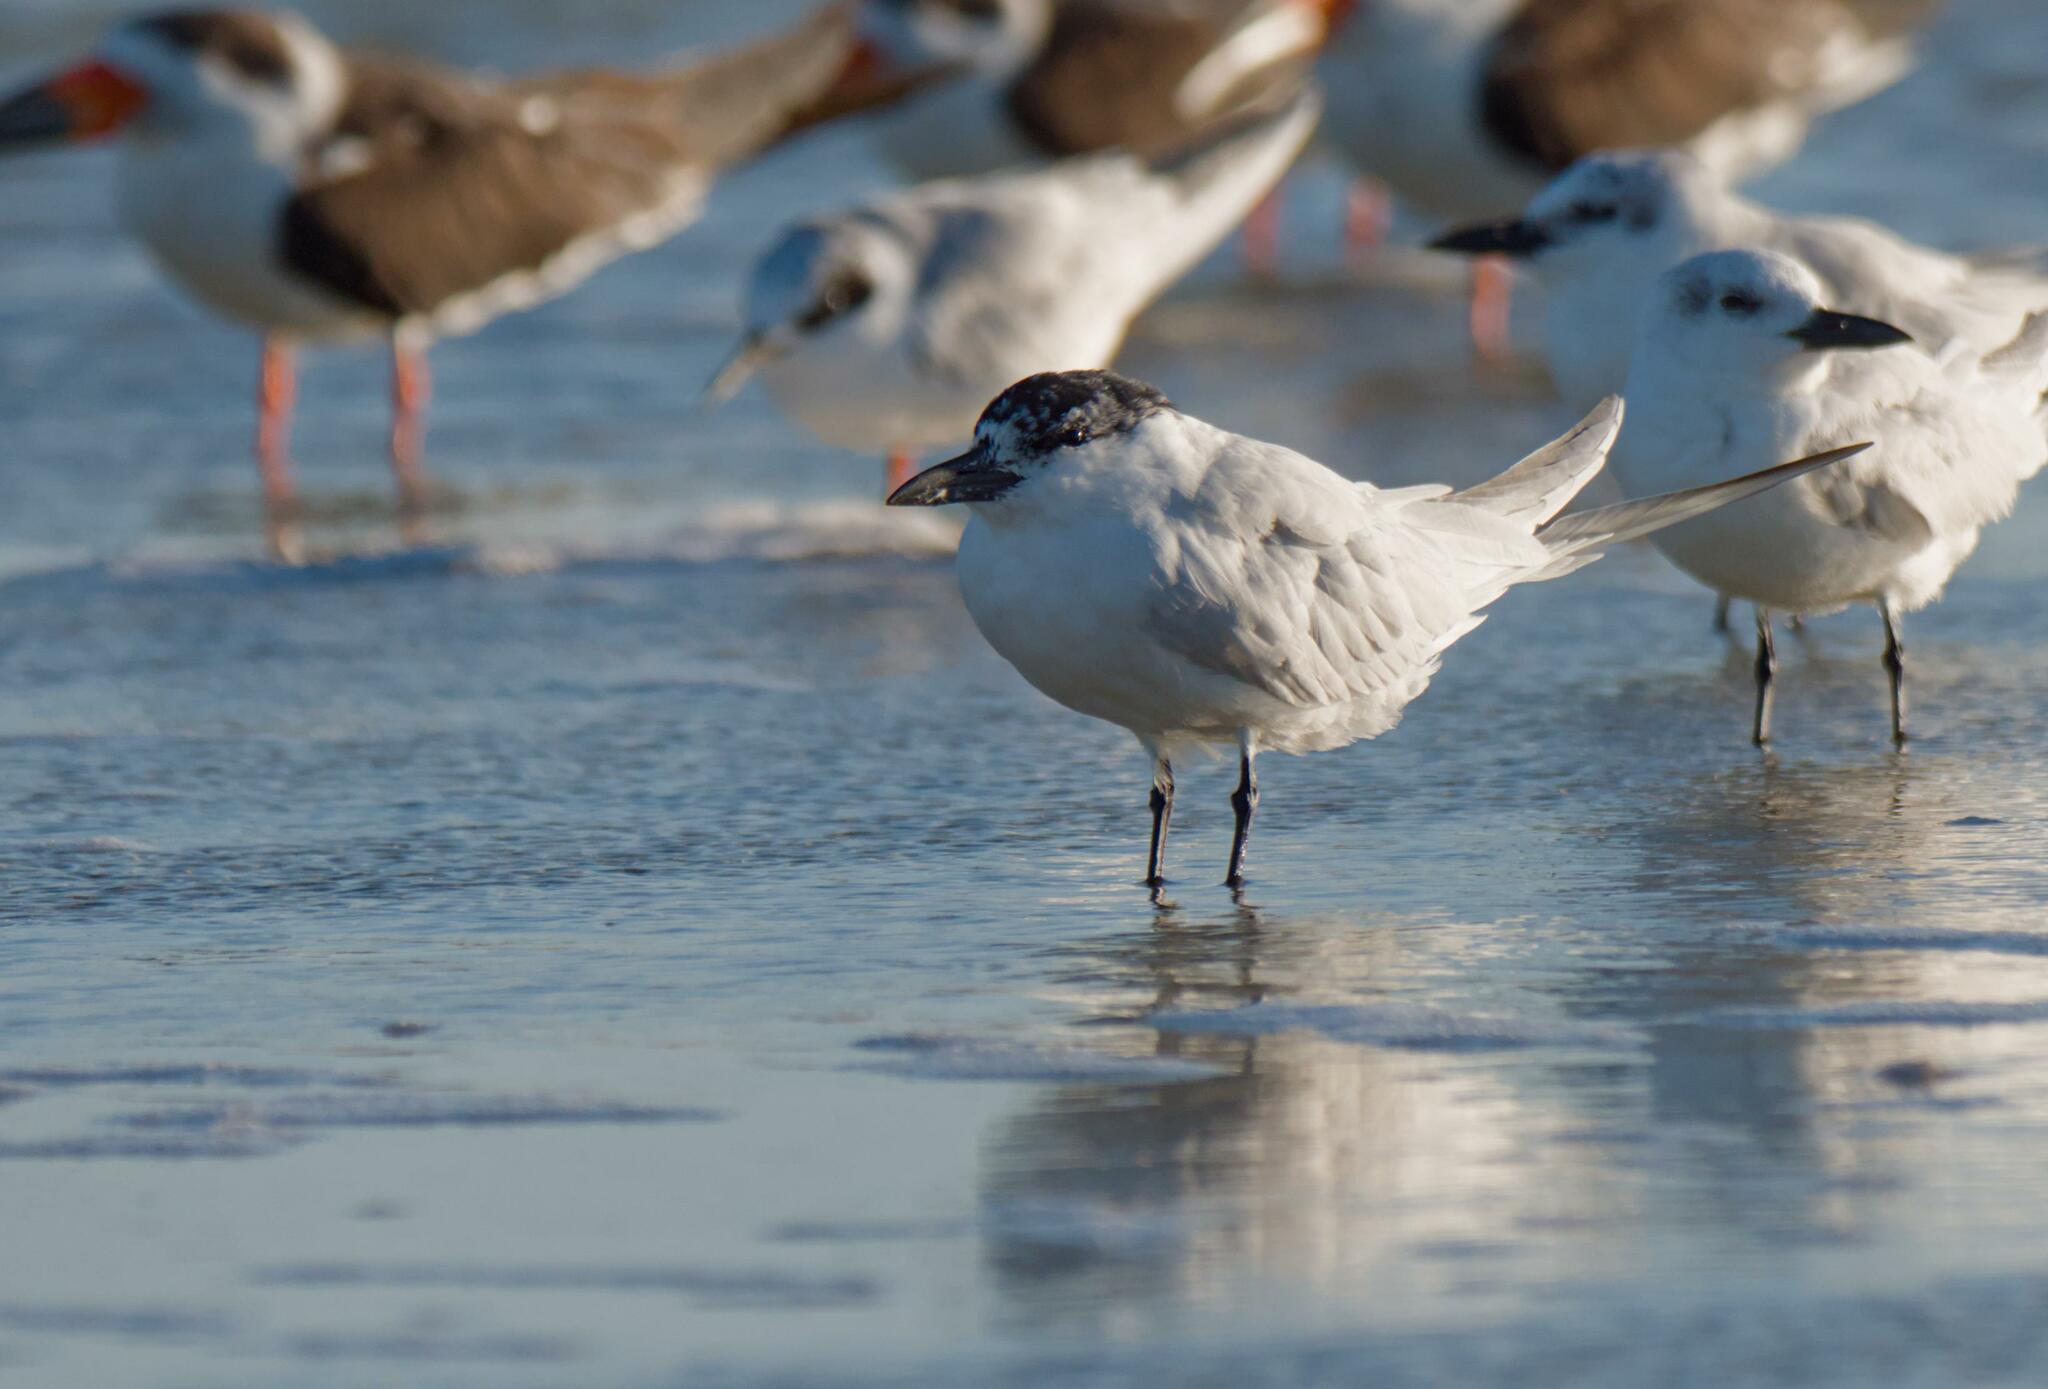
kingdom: Animalia
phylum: Chordata
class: Aves
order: Charadriiformes
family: Laridae
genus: Gelochelidon
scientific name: Gelochelidon nilotica
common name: Gull-billed tern
